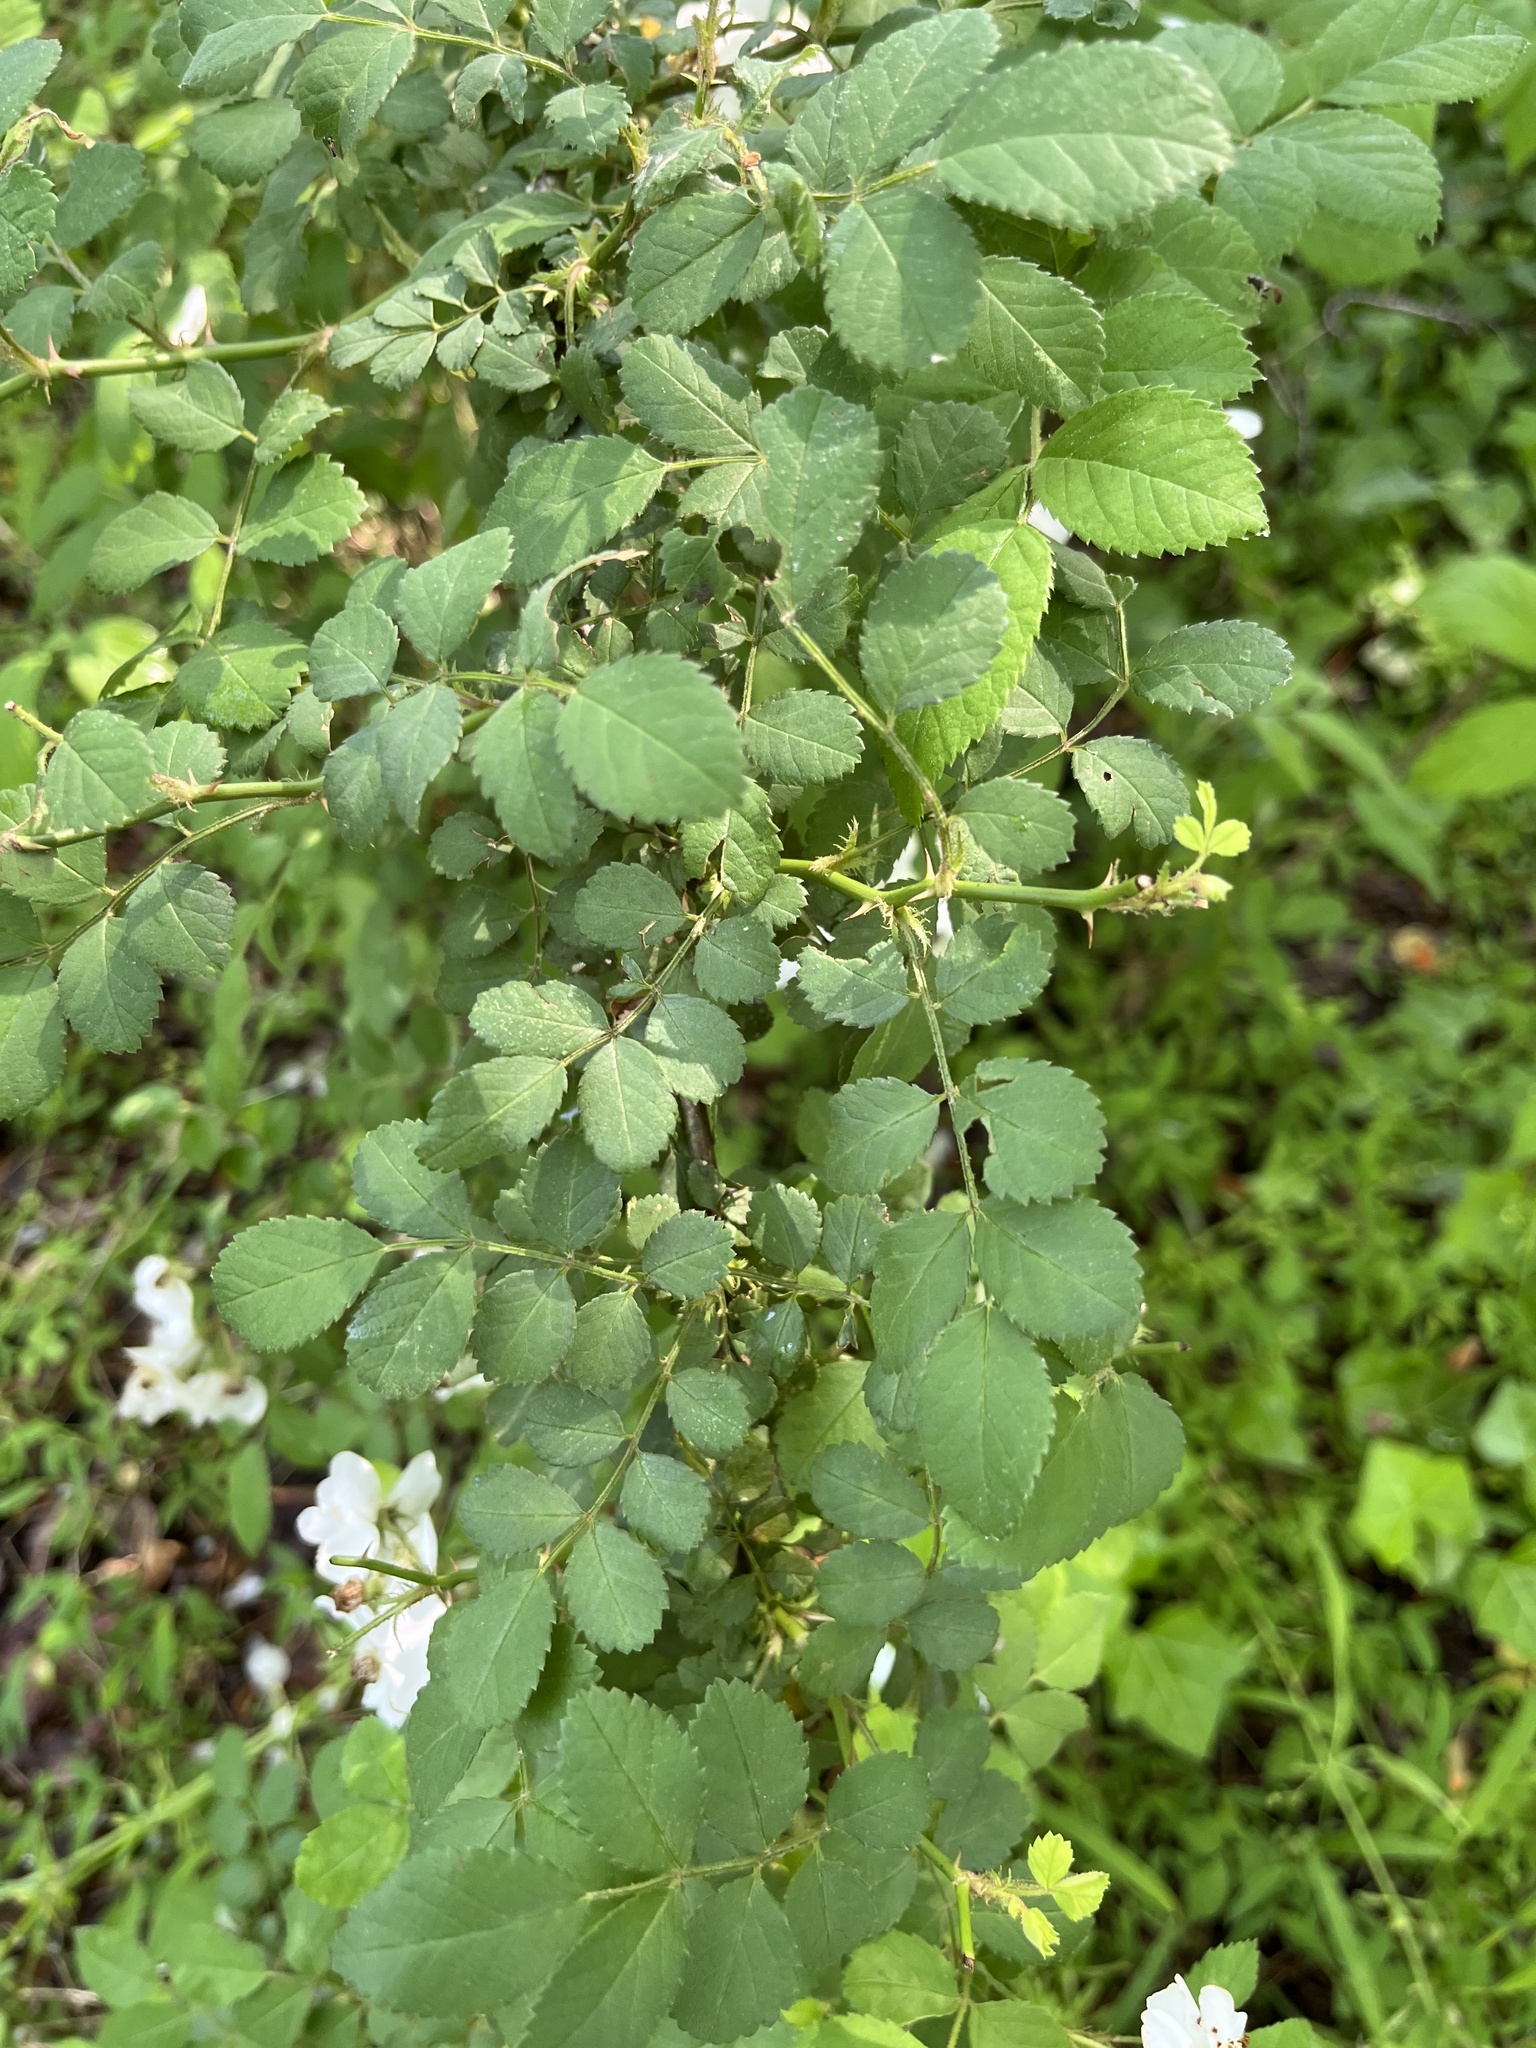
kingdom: Plantae
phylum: Tracheophyta
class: Magnoliopsida
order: Rosales
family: Rosaceae
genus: Rosa
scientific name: Rosa multiflora
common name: Multiflora rose
